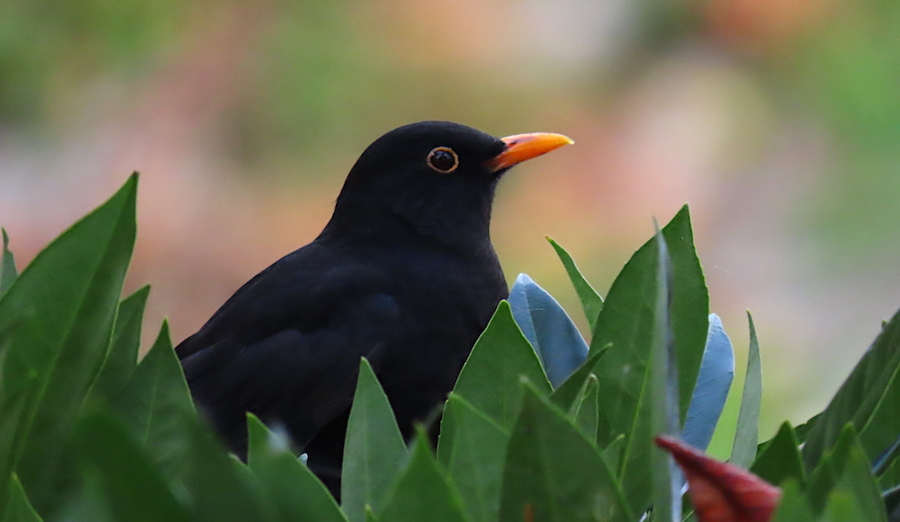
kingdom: Animalia
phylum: Chordata
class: Aves
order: Passeriformes
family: Turdidae
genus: Turdus
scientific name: Turdus merula
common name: Common blackbird
